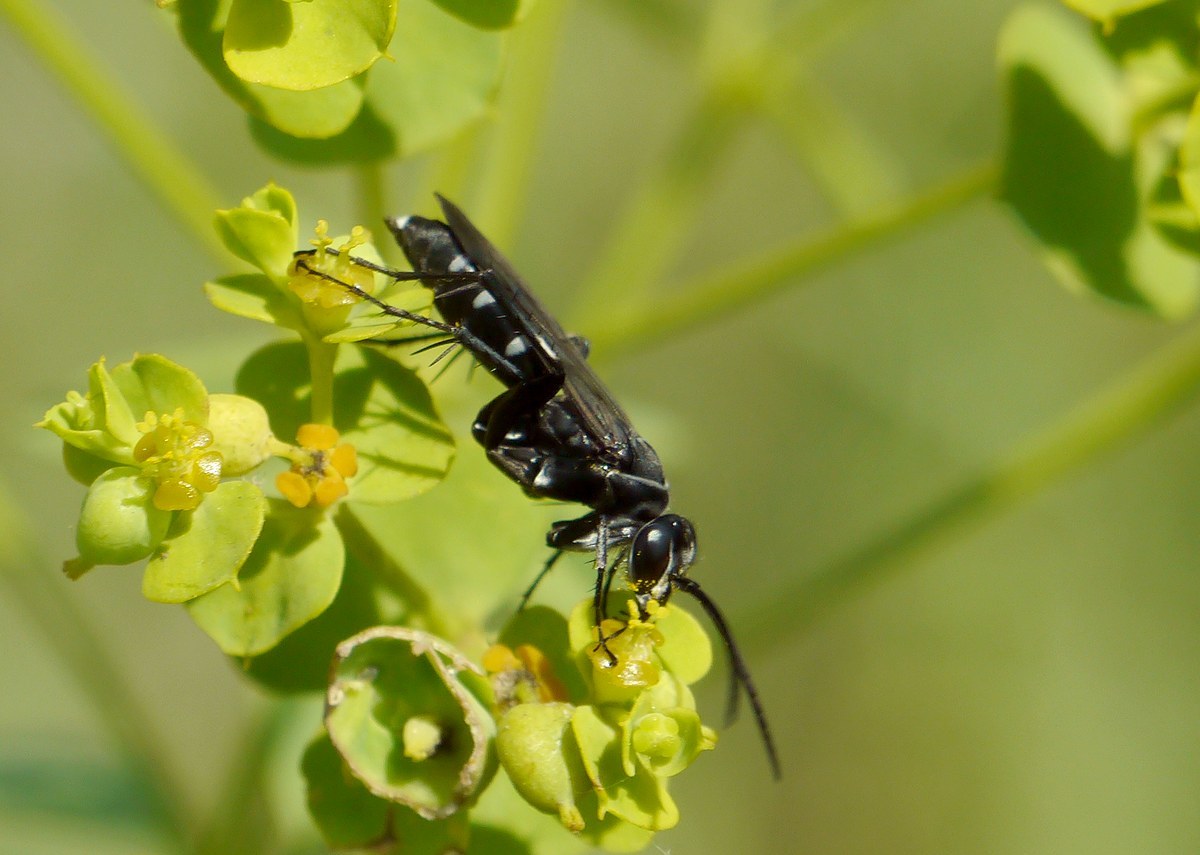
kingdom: Animalia
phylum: Arthropoda
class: Insecta
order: Hymenoptera
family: Pompilidae
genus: Dicyrtomellus
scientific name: Dicyrtomellus tingitanus
